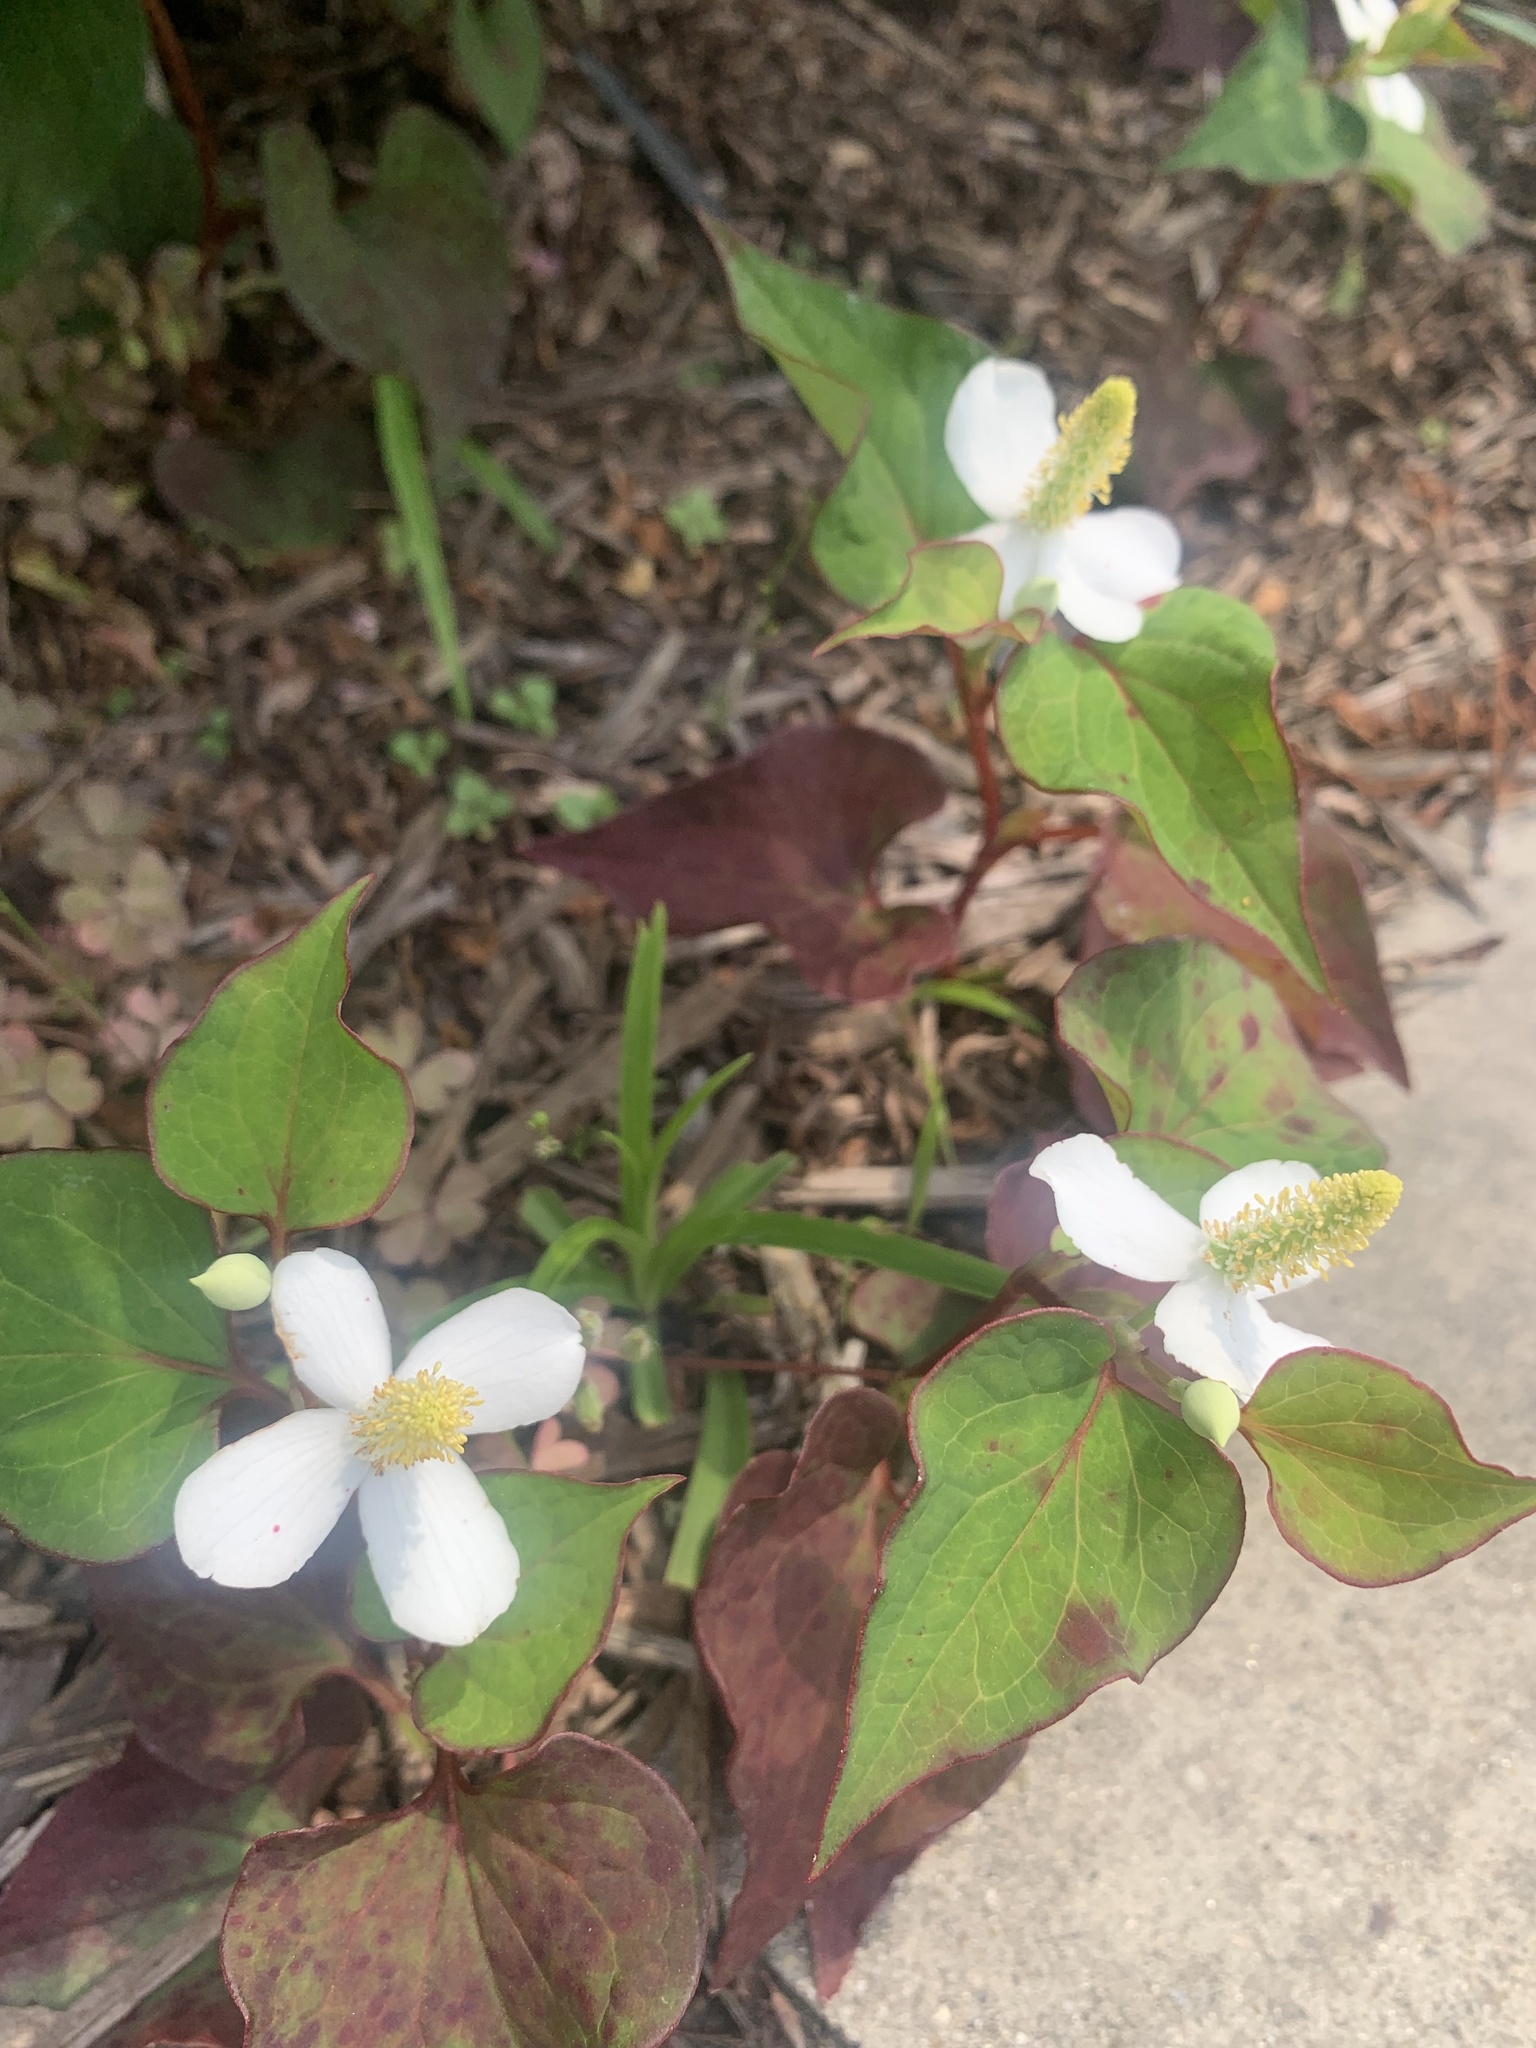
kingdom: Plantae
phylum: Tracheophyta
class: Magnoliopsida
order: Piperales
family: Saururaceae
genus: Houttuynia
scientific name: Houttuynia cordata
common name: Chameleon
